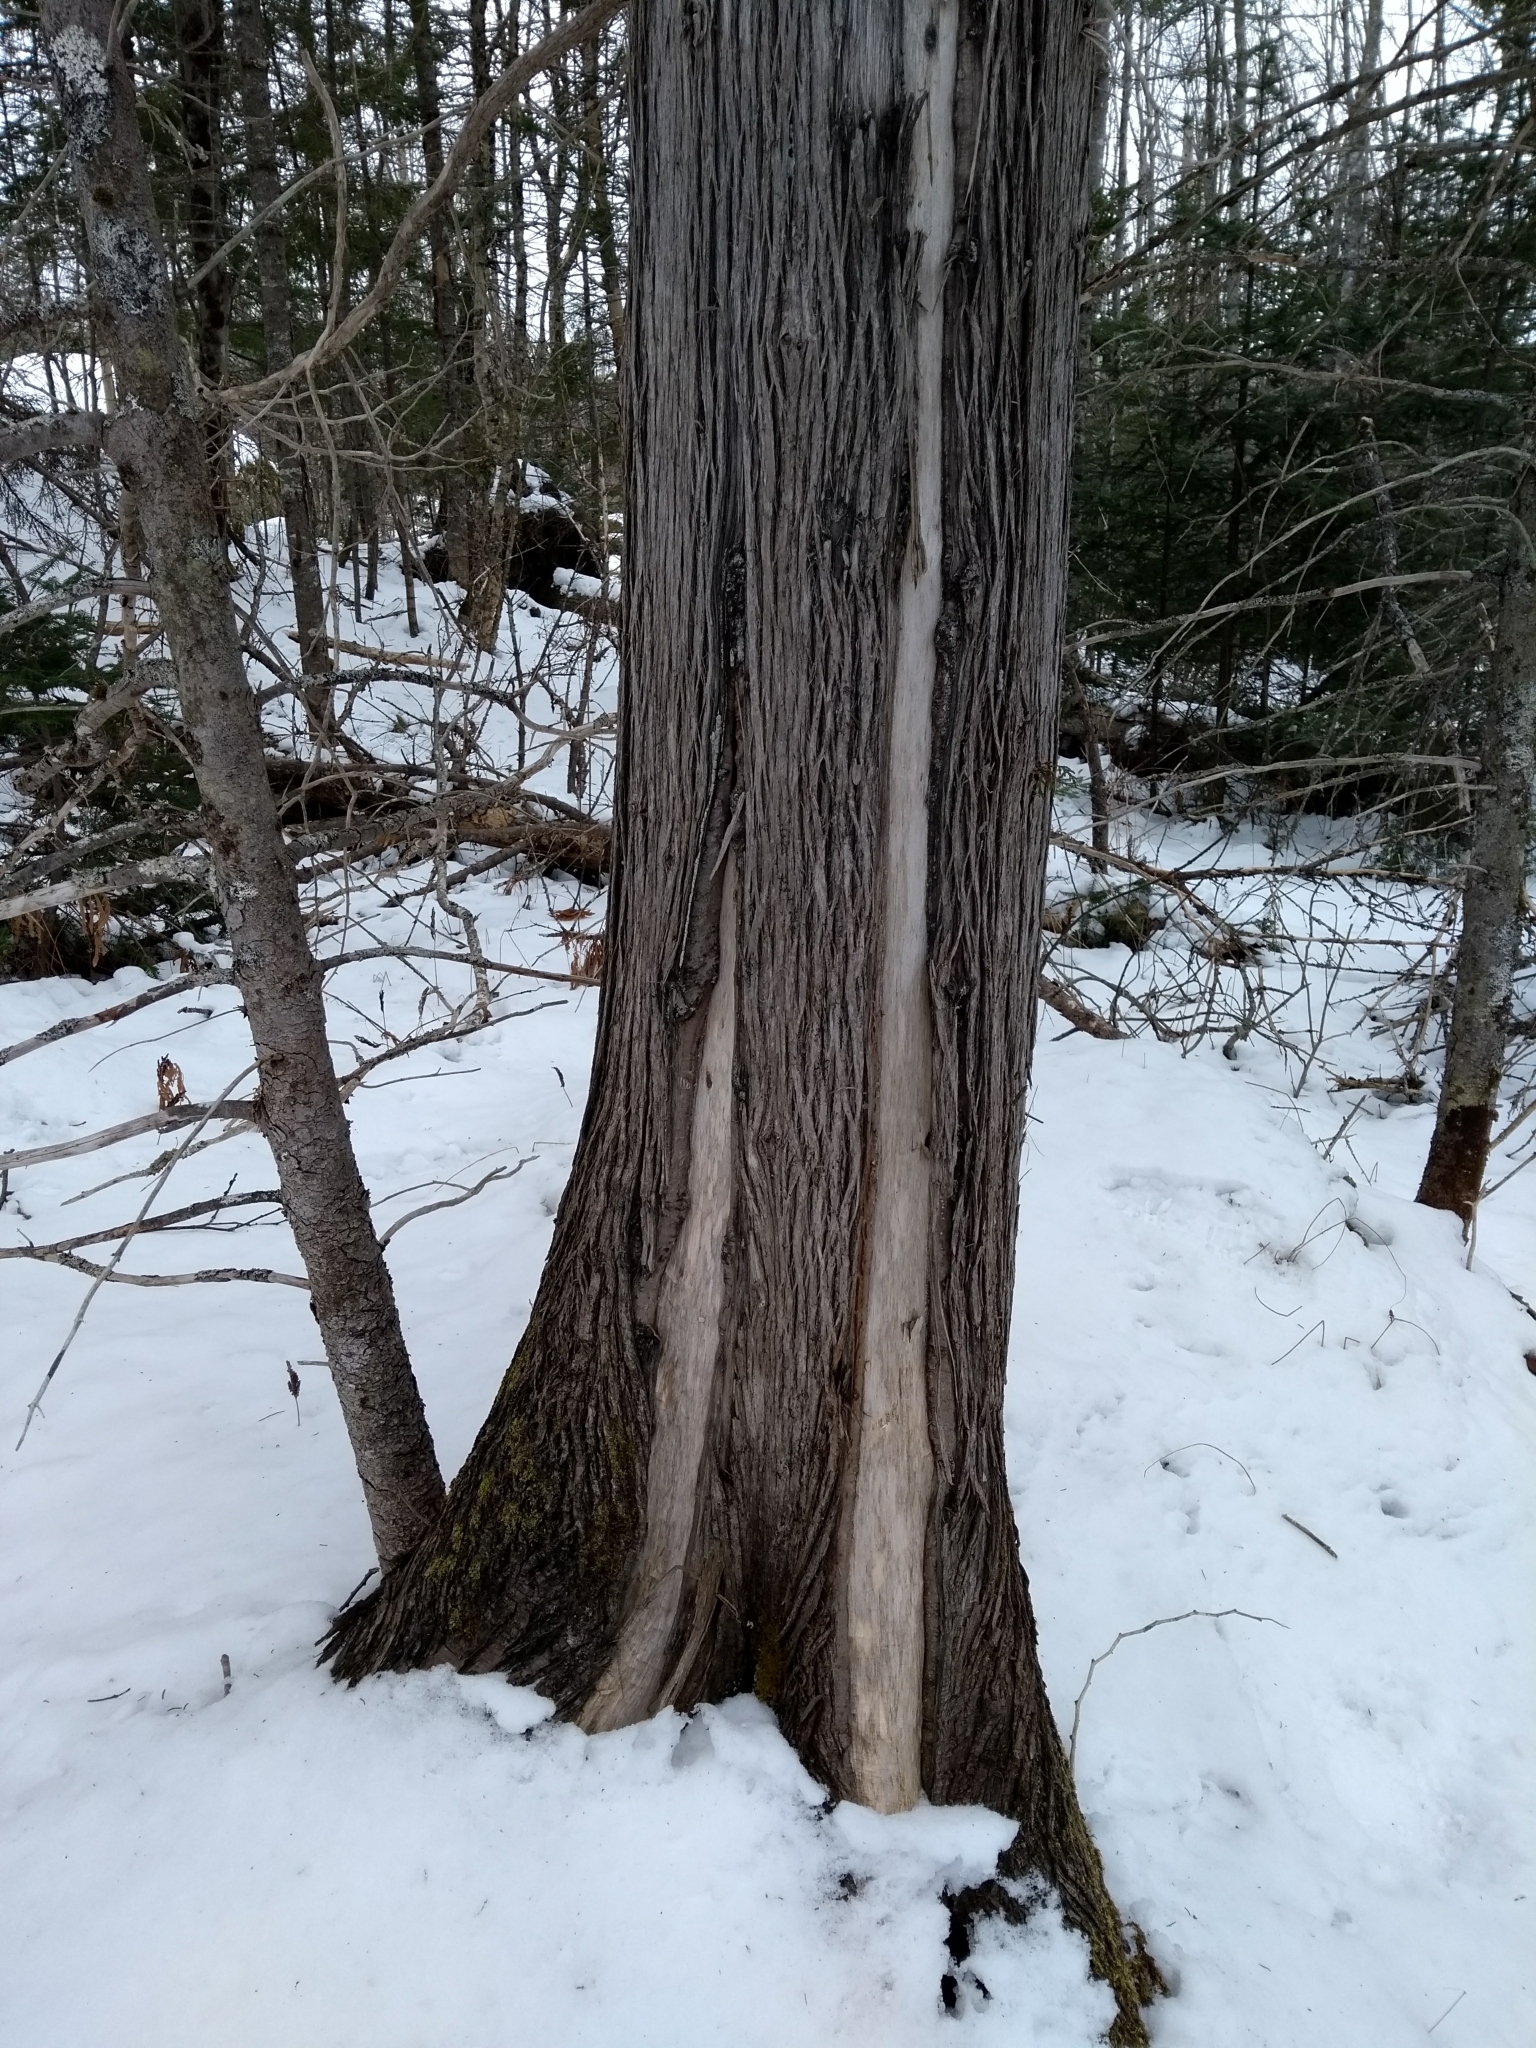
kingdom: Plantae
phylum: Tracheophyta
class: Pinopsida
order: Pinales
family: Cupressaceae
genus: Thuja
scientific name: Thuja occidentalis
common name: Northern white-cedar
